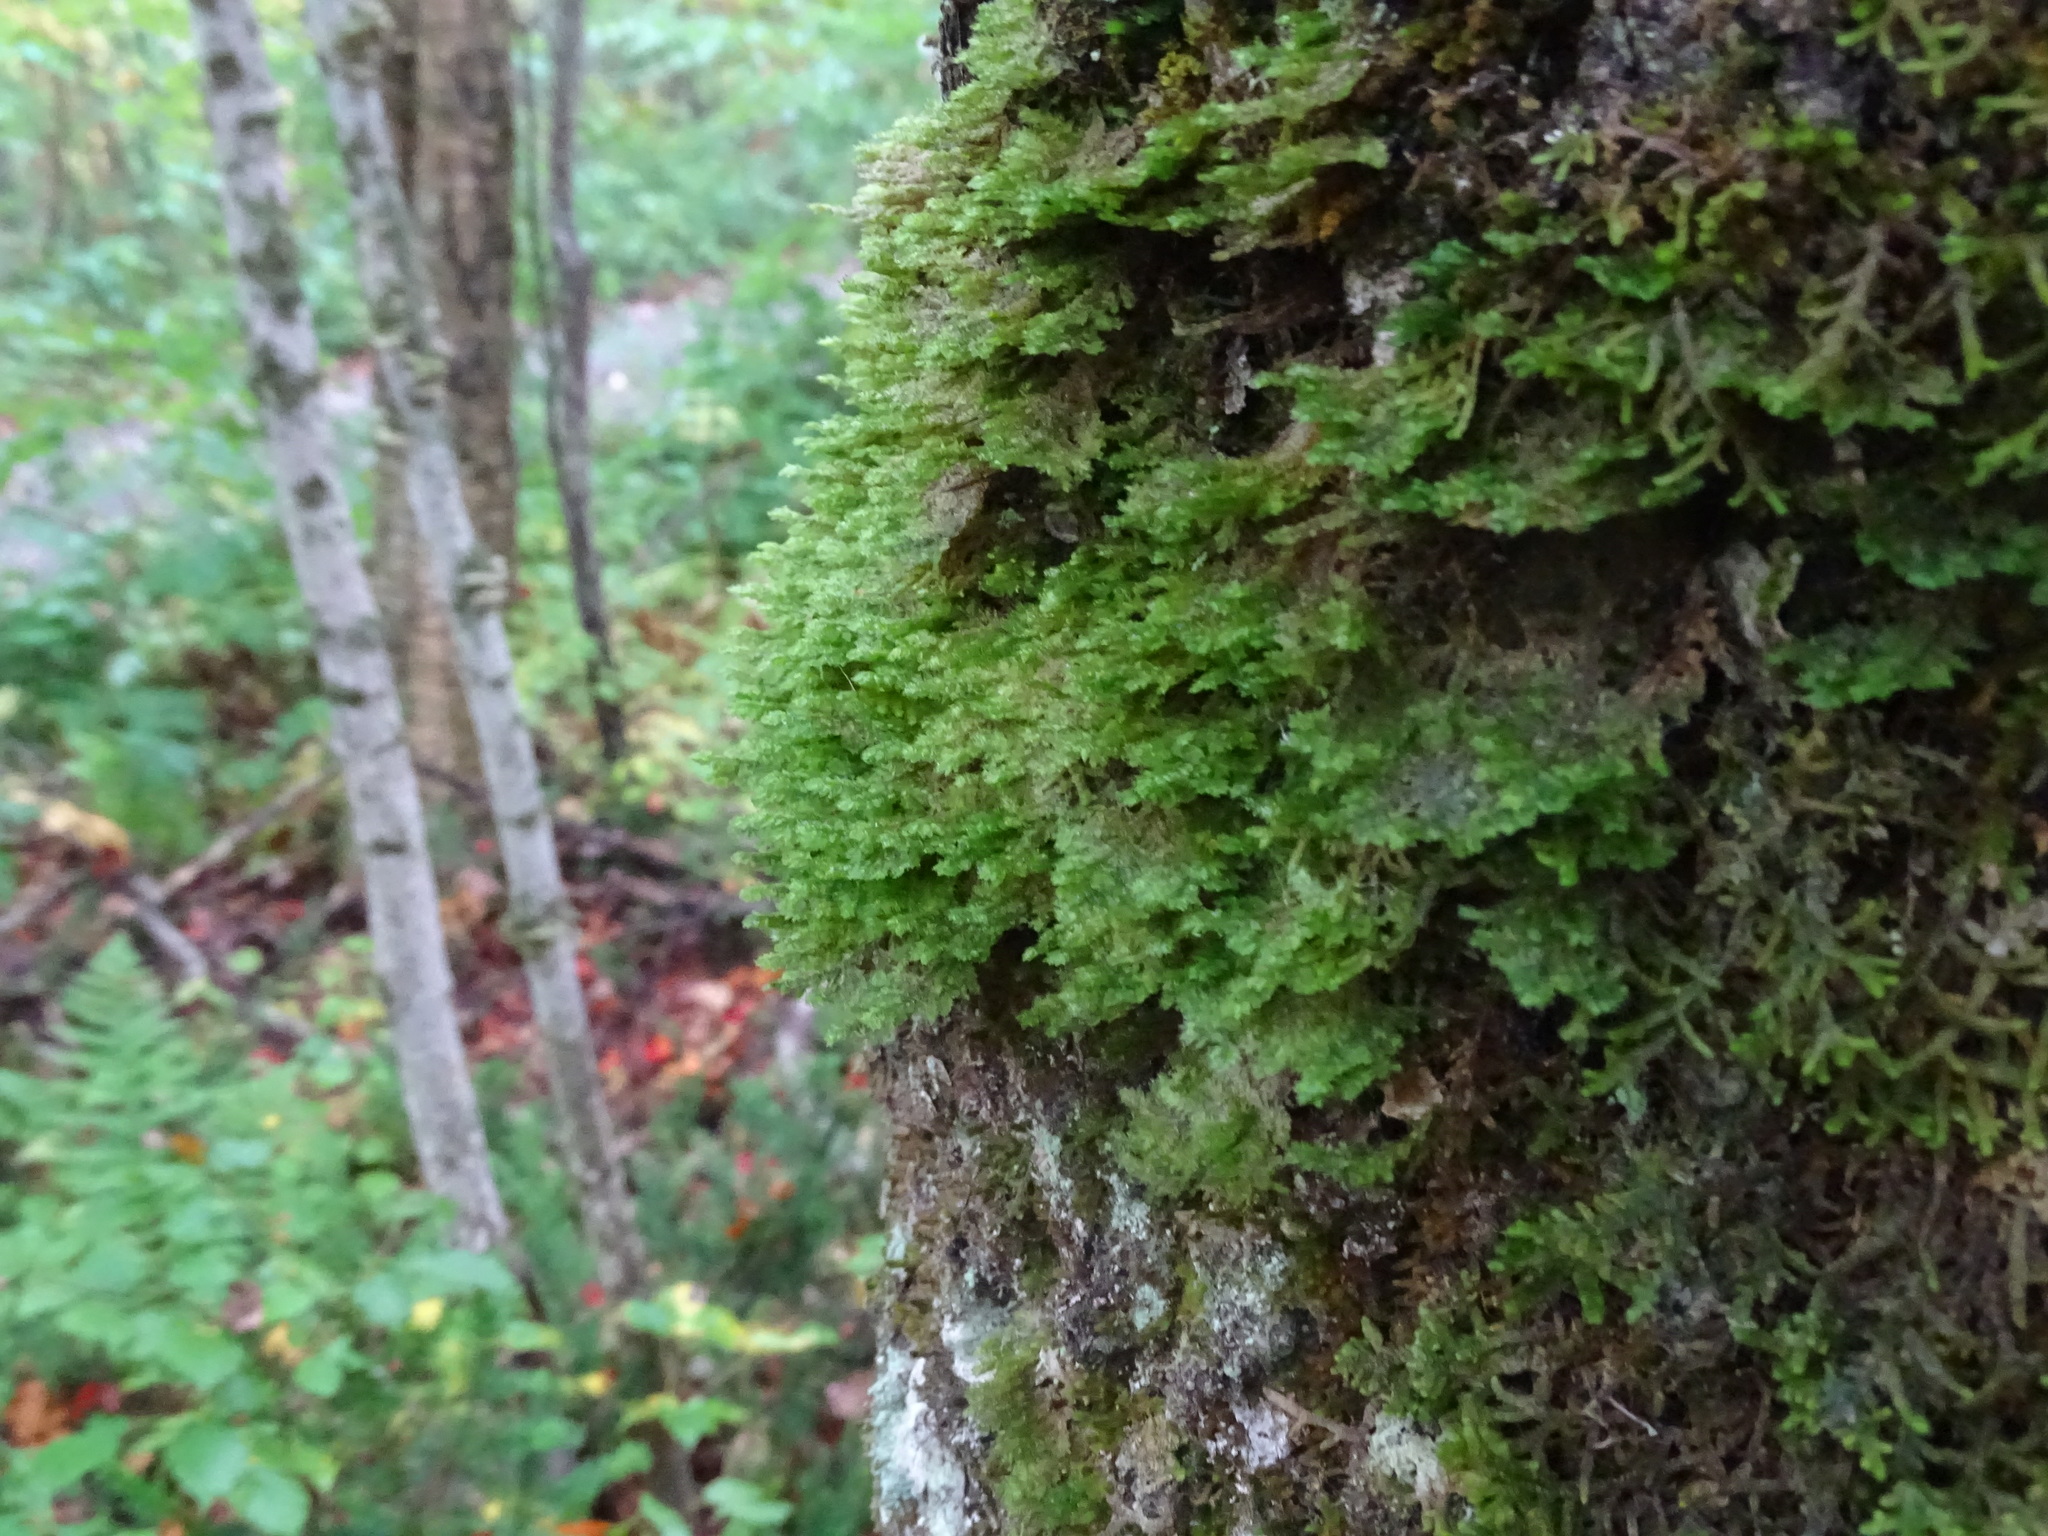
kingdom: Plantae
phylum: Bryophyta
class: Bryopsida
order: Hypnales
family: Neckeraceae
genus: Neckera
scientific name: Neckera pennata
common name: Feathery neckera
